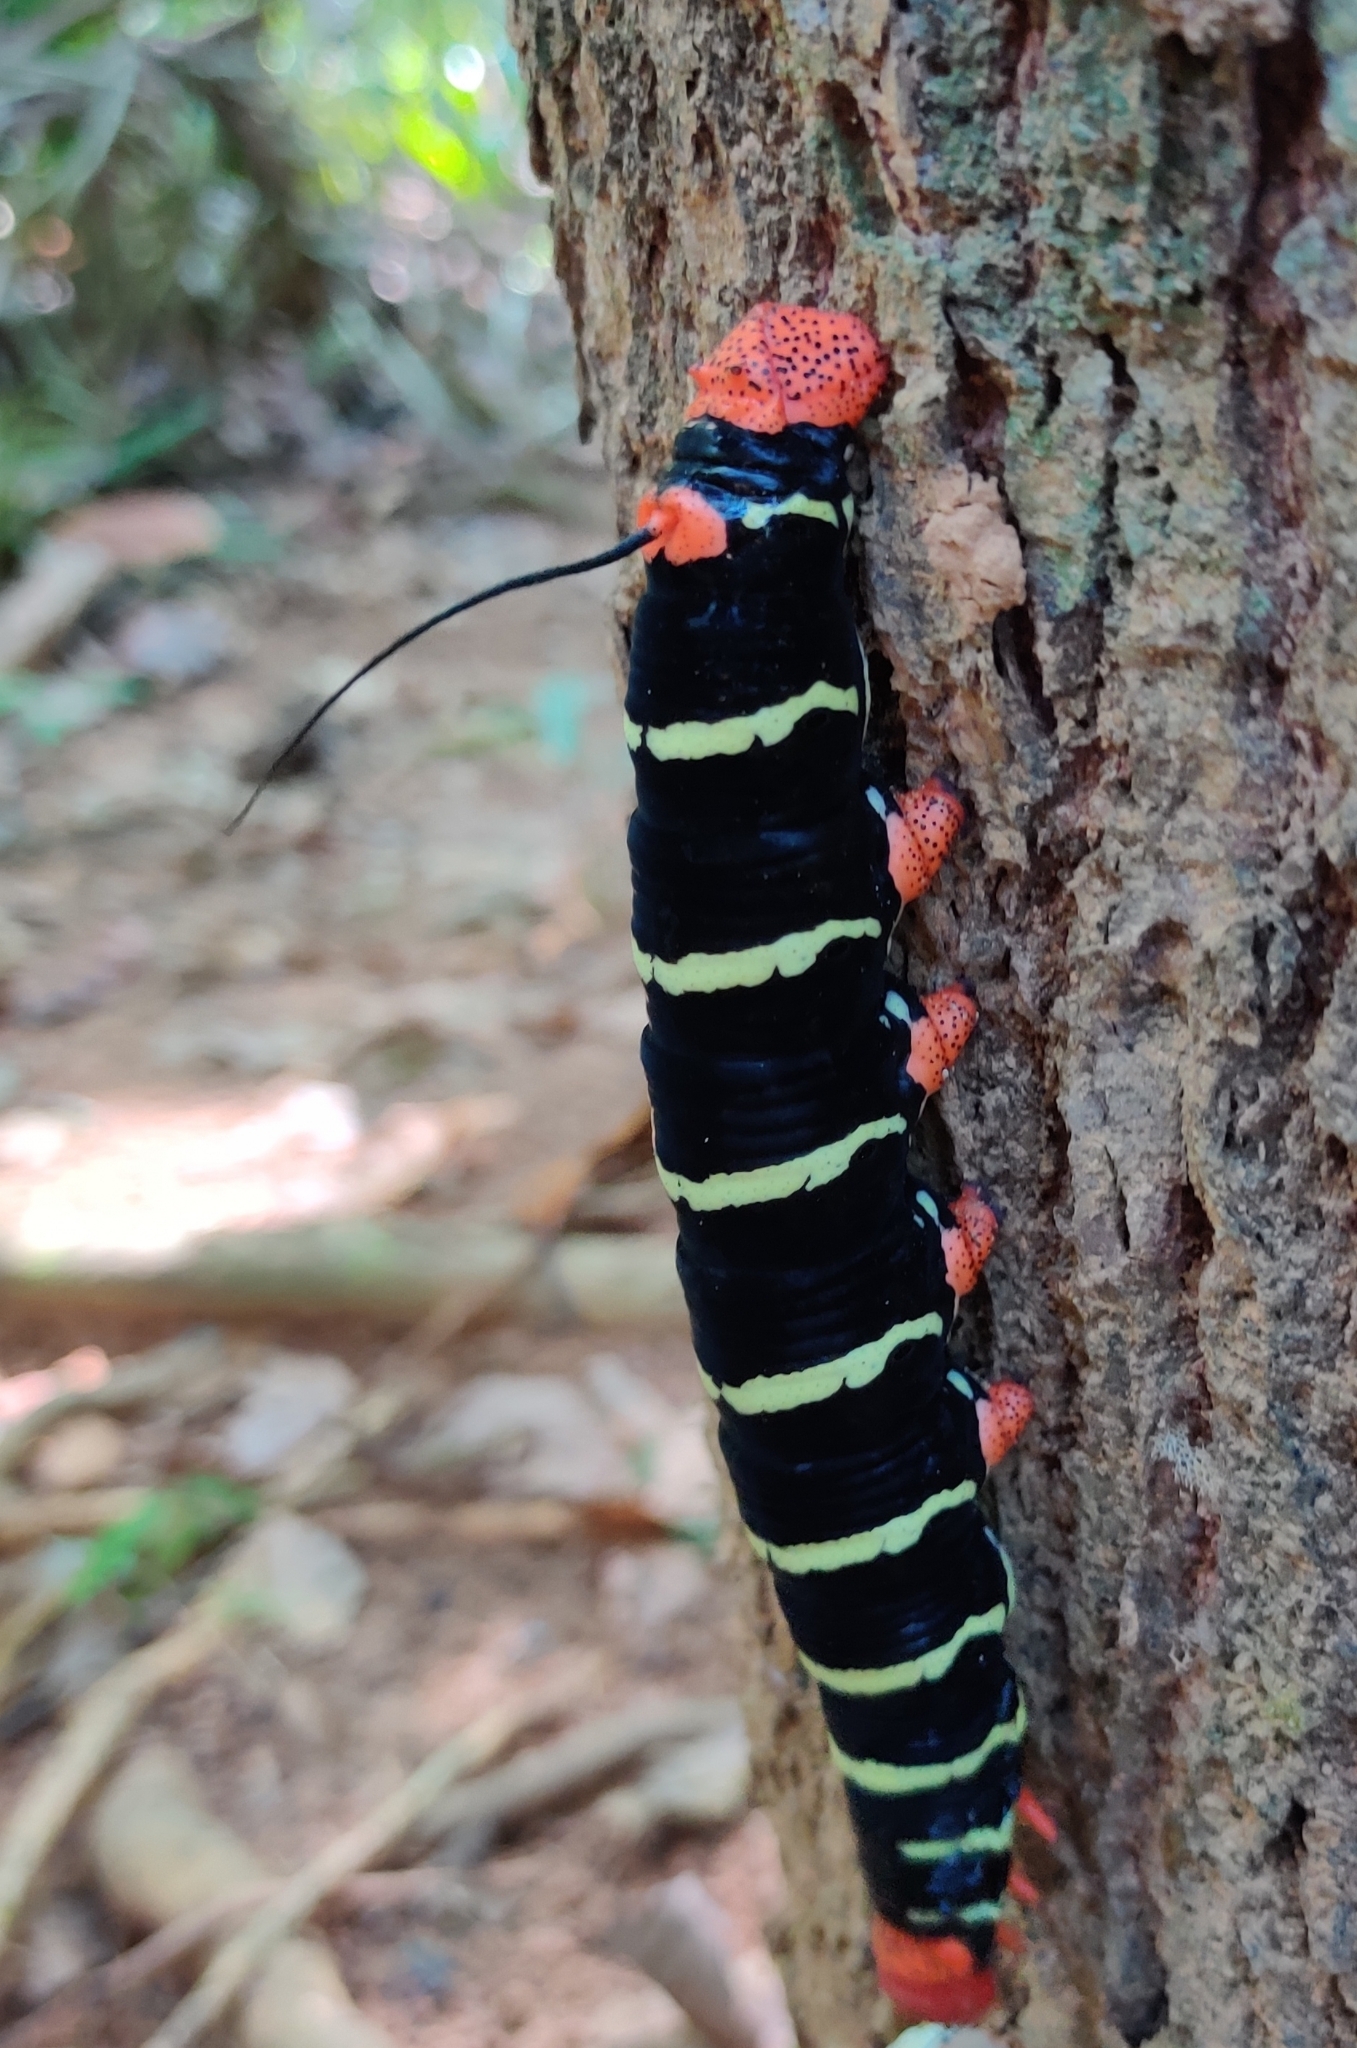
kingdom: Animalia
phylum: Arthropoda
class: Insecta
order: Lepidoptera
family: Sphingidae
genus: Pseudosphinx
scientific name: Pseudosphinx tetrio
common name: Tetrio sphinx
